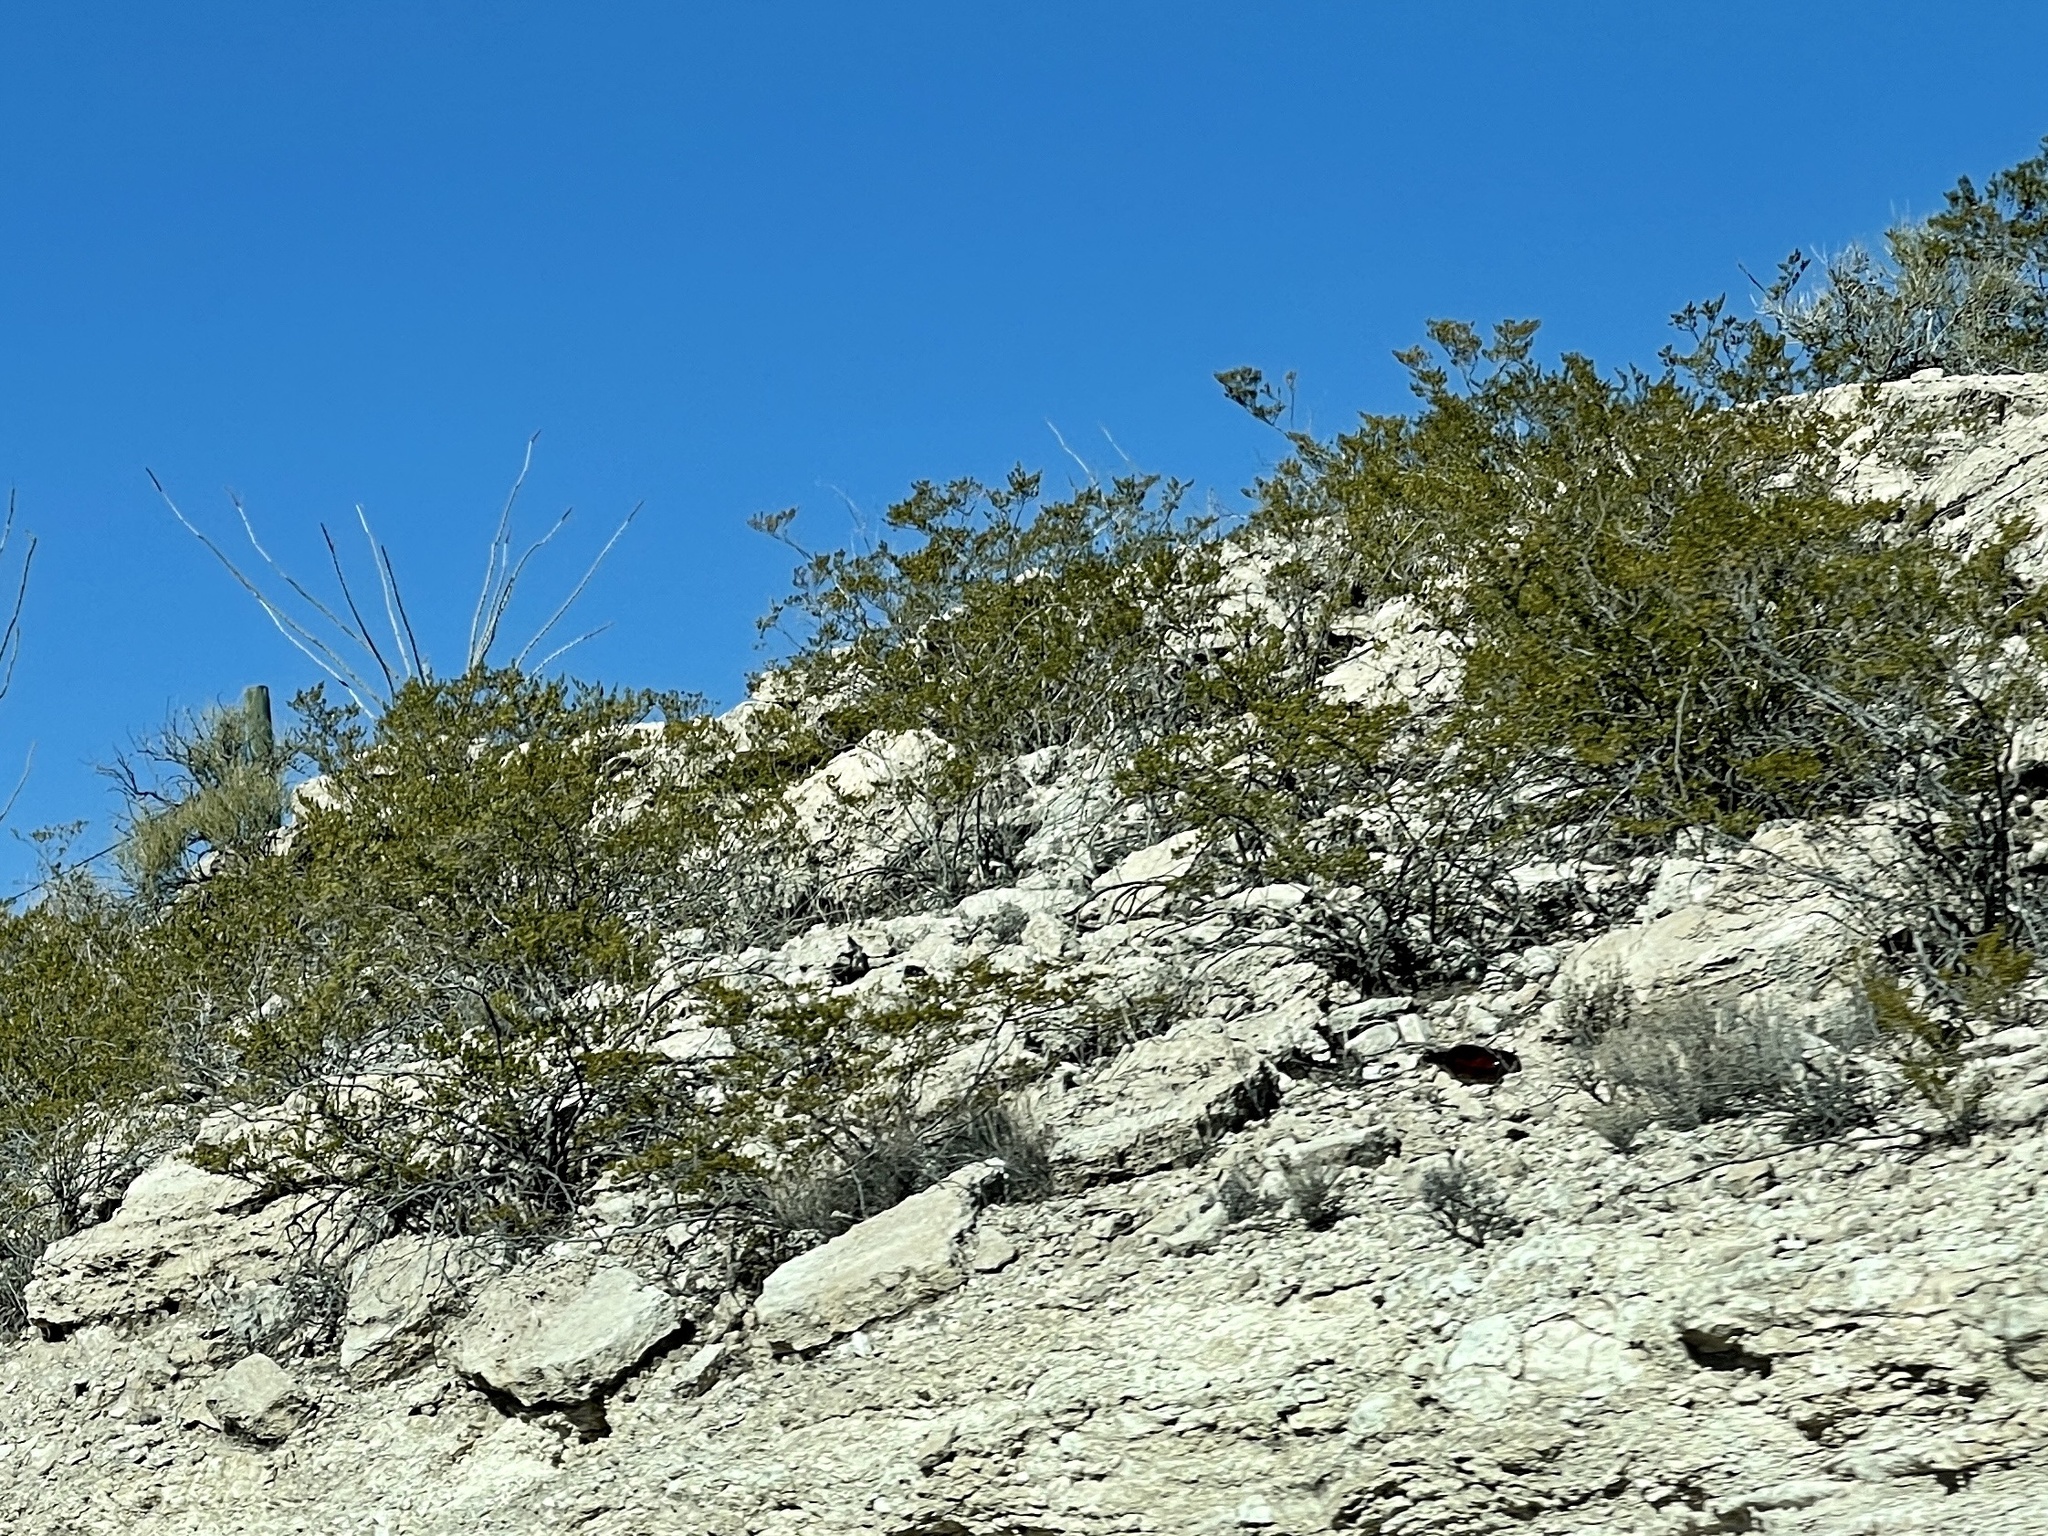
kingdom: Plantae
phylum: Tracheophyta
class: Magnoliopsida
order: Zygophyllales
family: Zygophyllaceae
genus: Larrea
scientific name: Larrea tridentata
